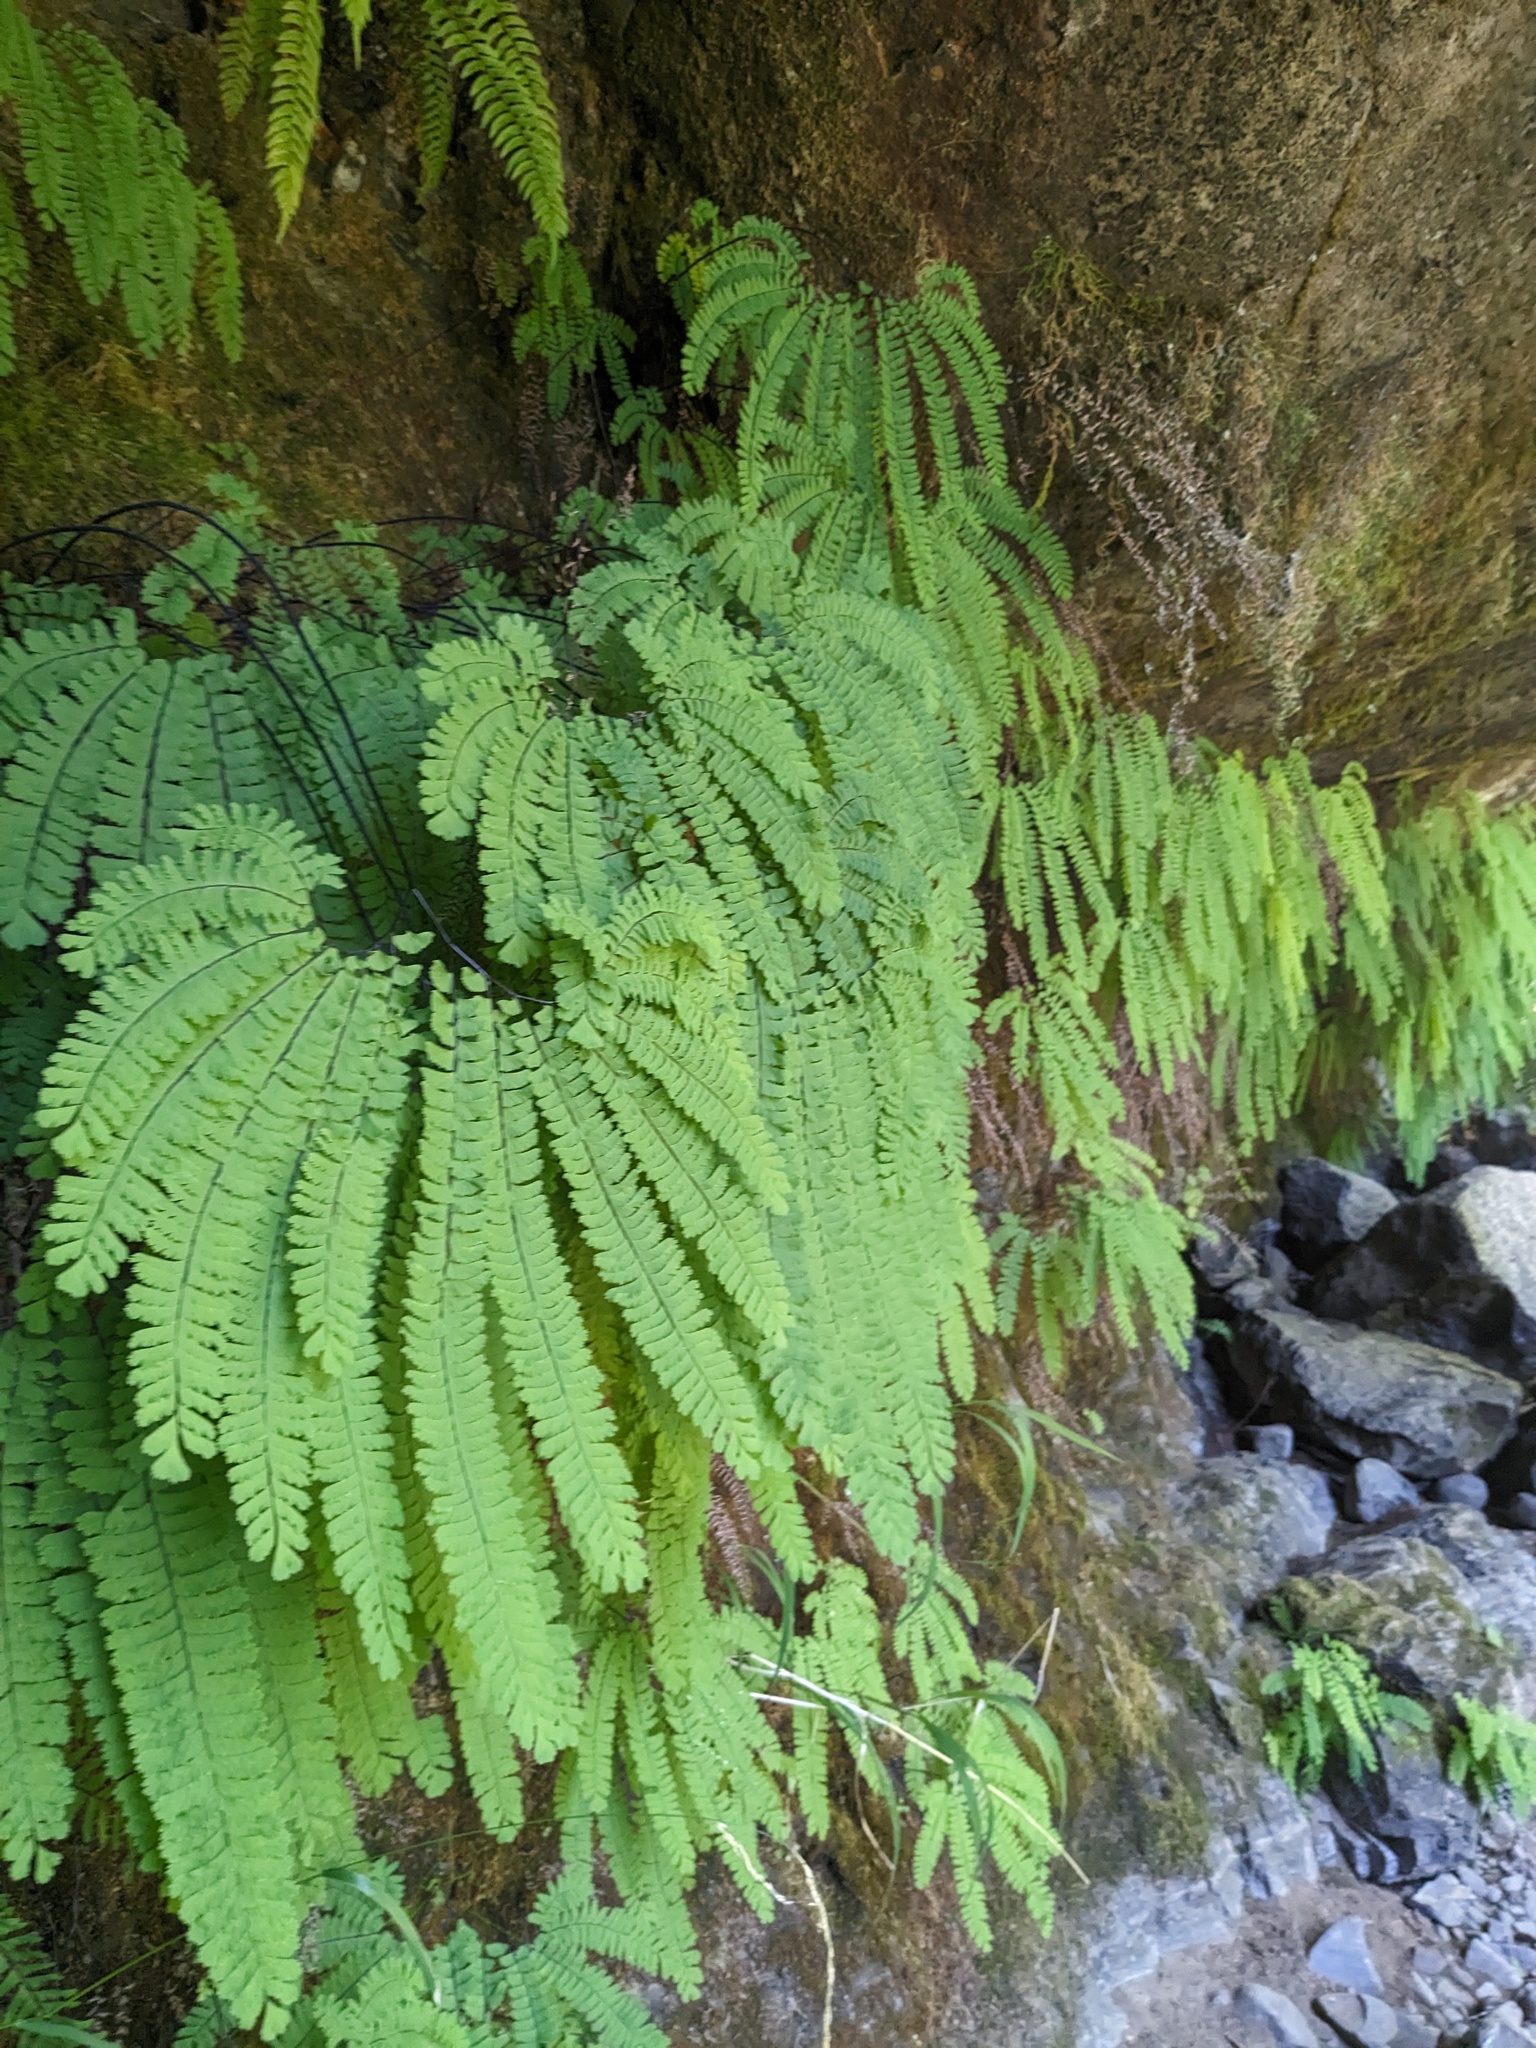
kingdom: Plantae
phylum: Tracheophyta
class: Polypodiopsida
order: Polypodiales
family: Pteridaceae
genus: Adiantum
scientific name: Adiantum aleuticum
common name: Aleutian maidenhair fern
